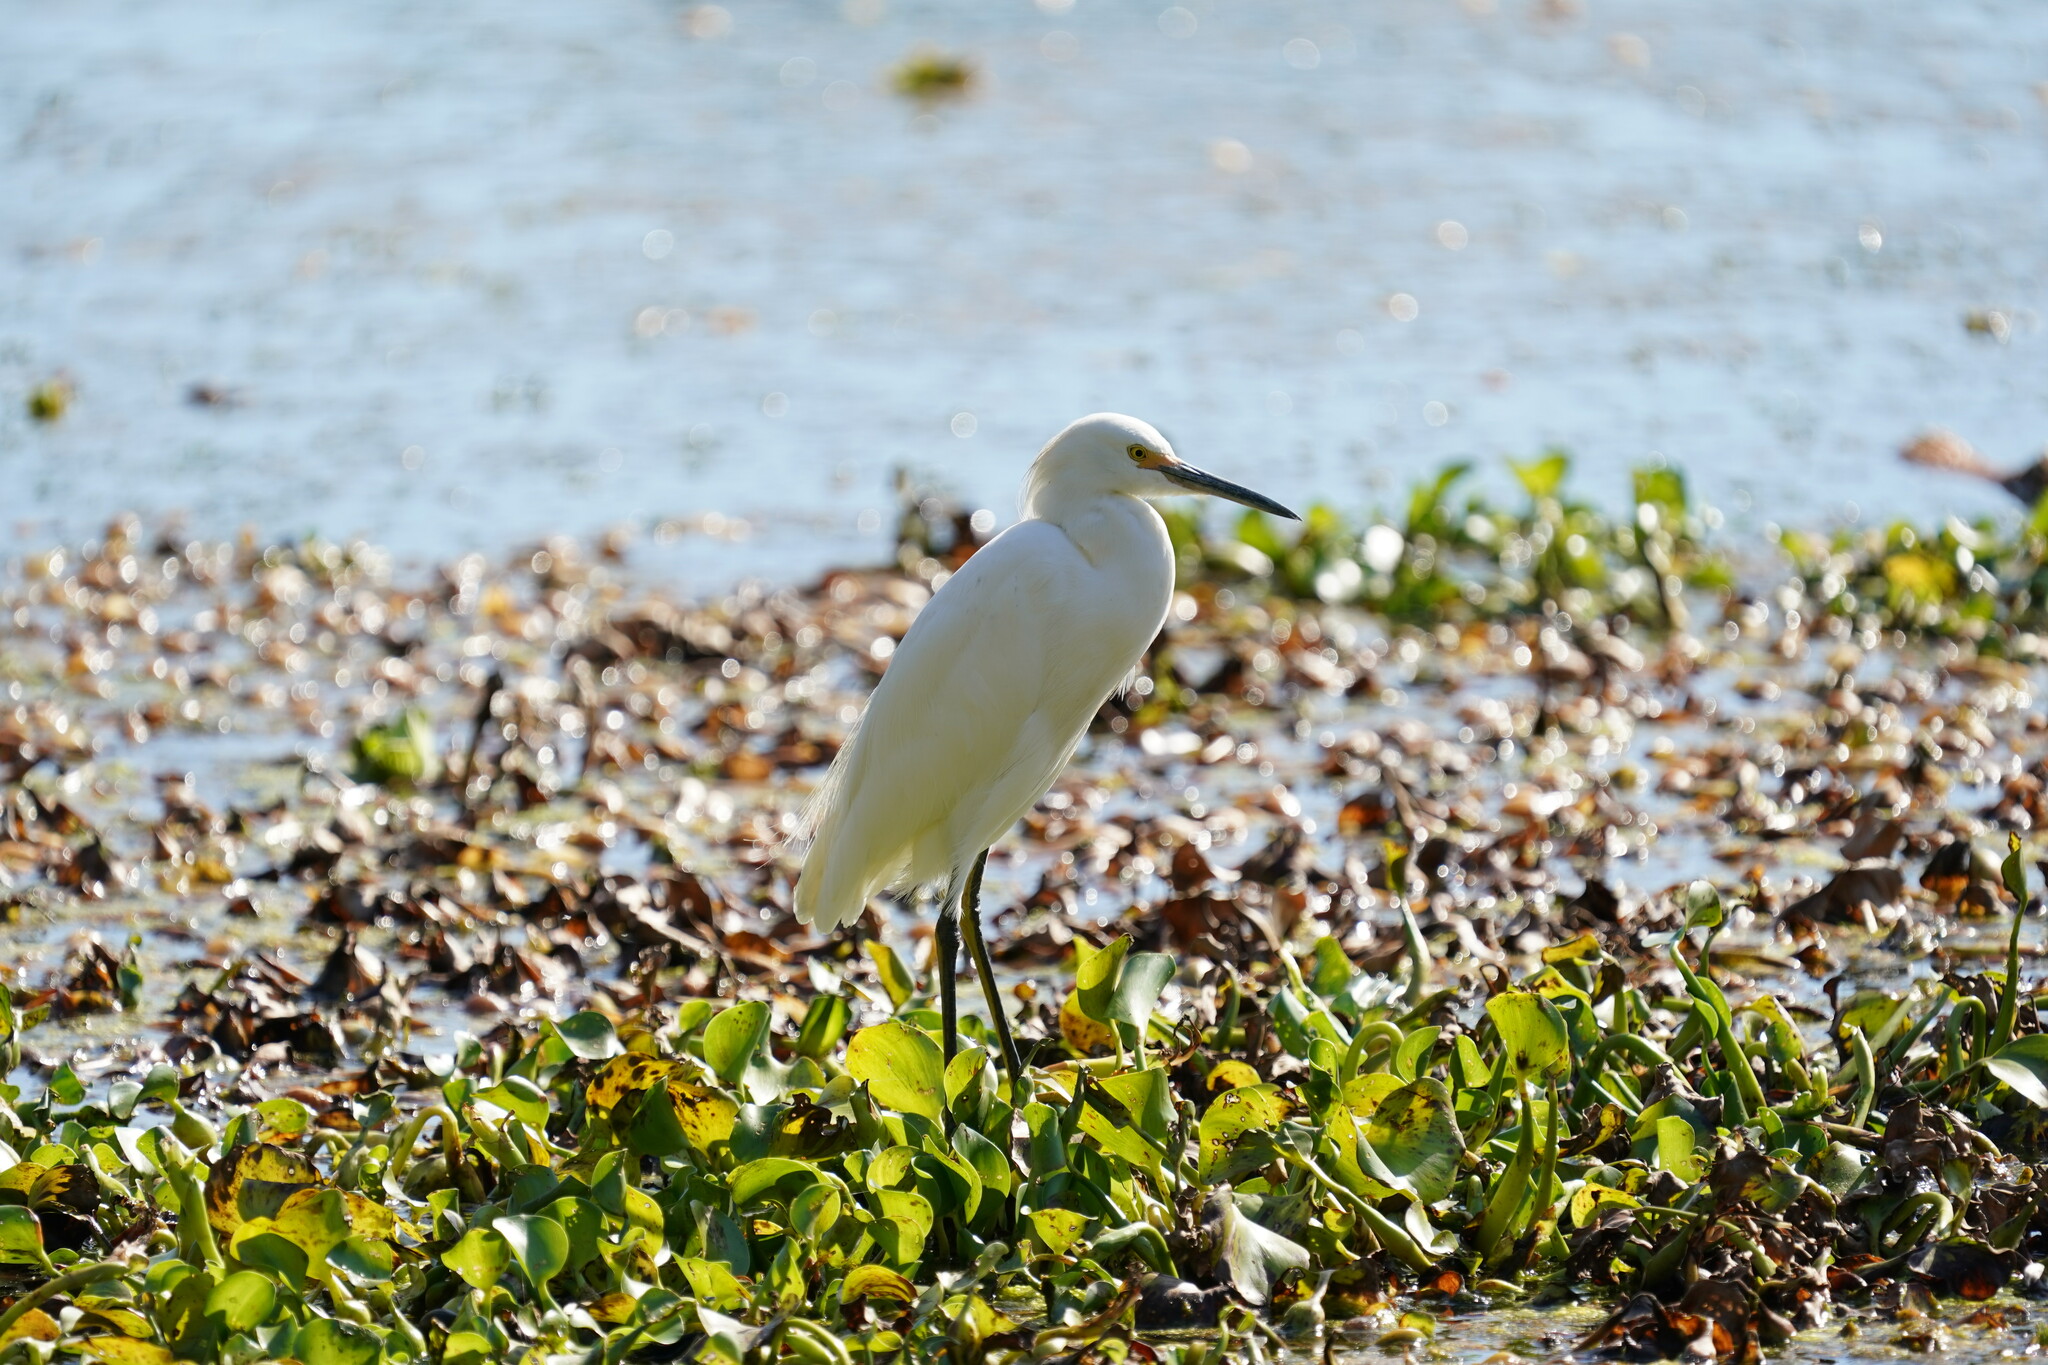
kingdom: Animalia
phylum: Chordata
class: Aves
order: Pelecaniformes
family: Ardeidae
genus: Egretta
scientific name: Egretta thula
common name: Snowy egret
